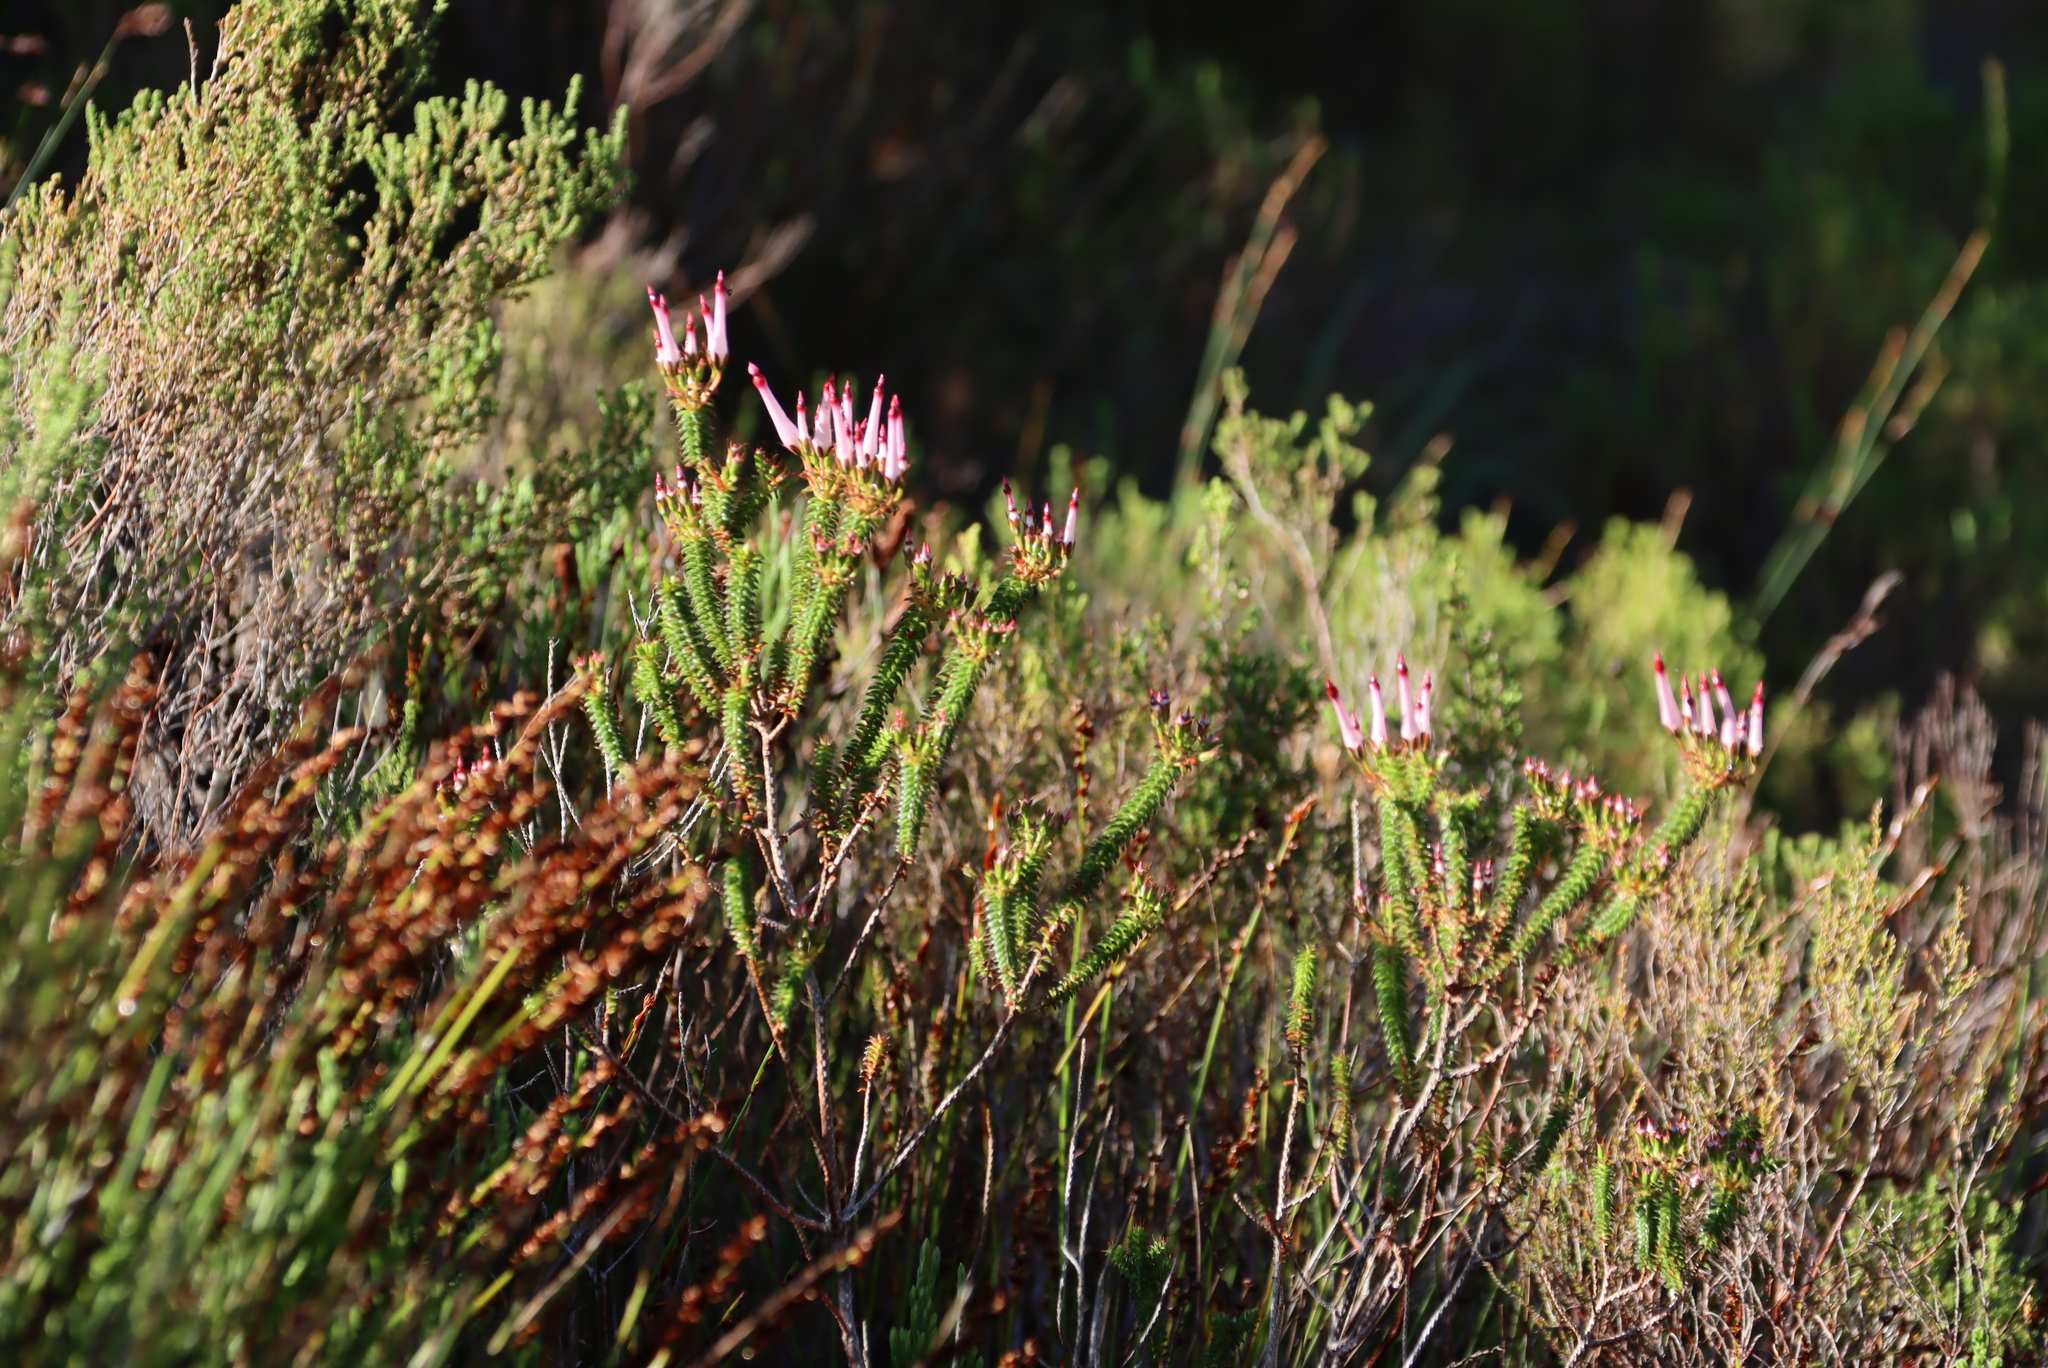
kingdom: Plantae
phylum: Tracheophyta
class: Magnoliopsida
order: Ericales
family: Ericaceae
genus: Erica
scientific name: Erica retorta
